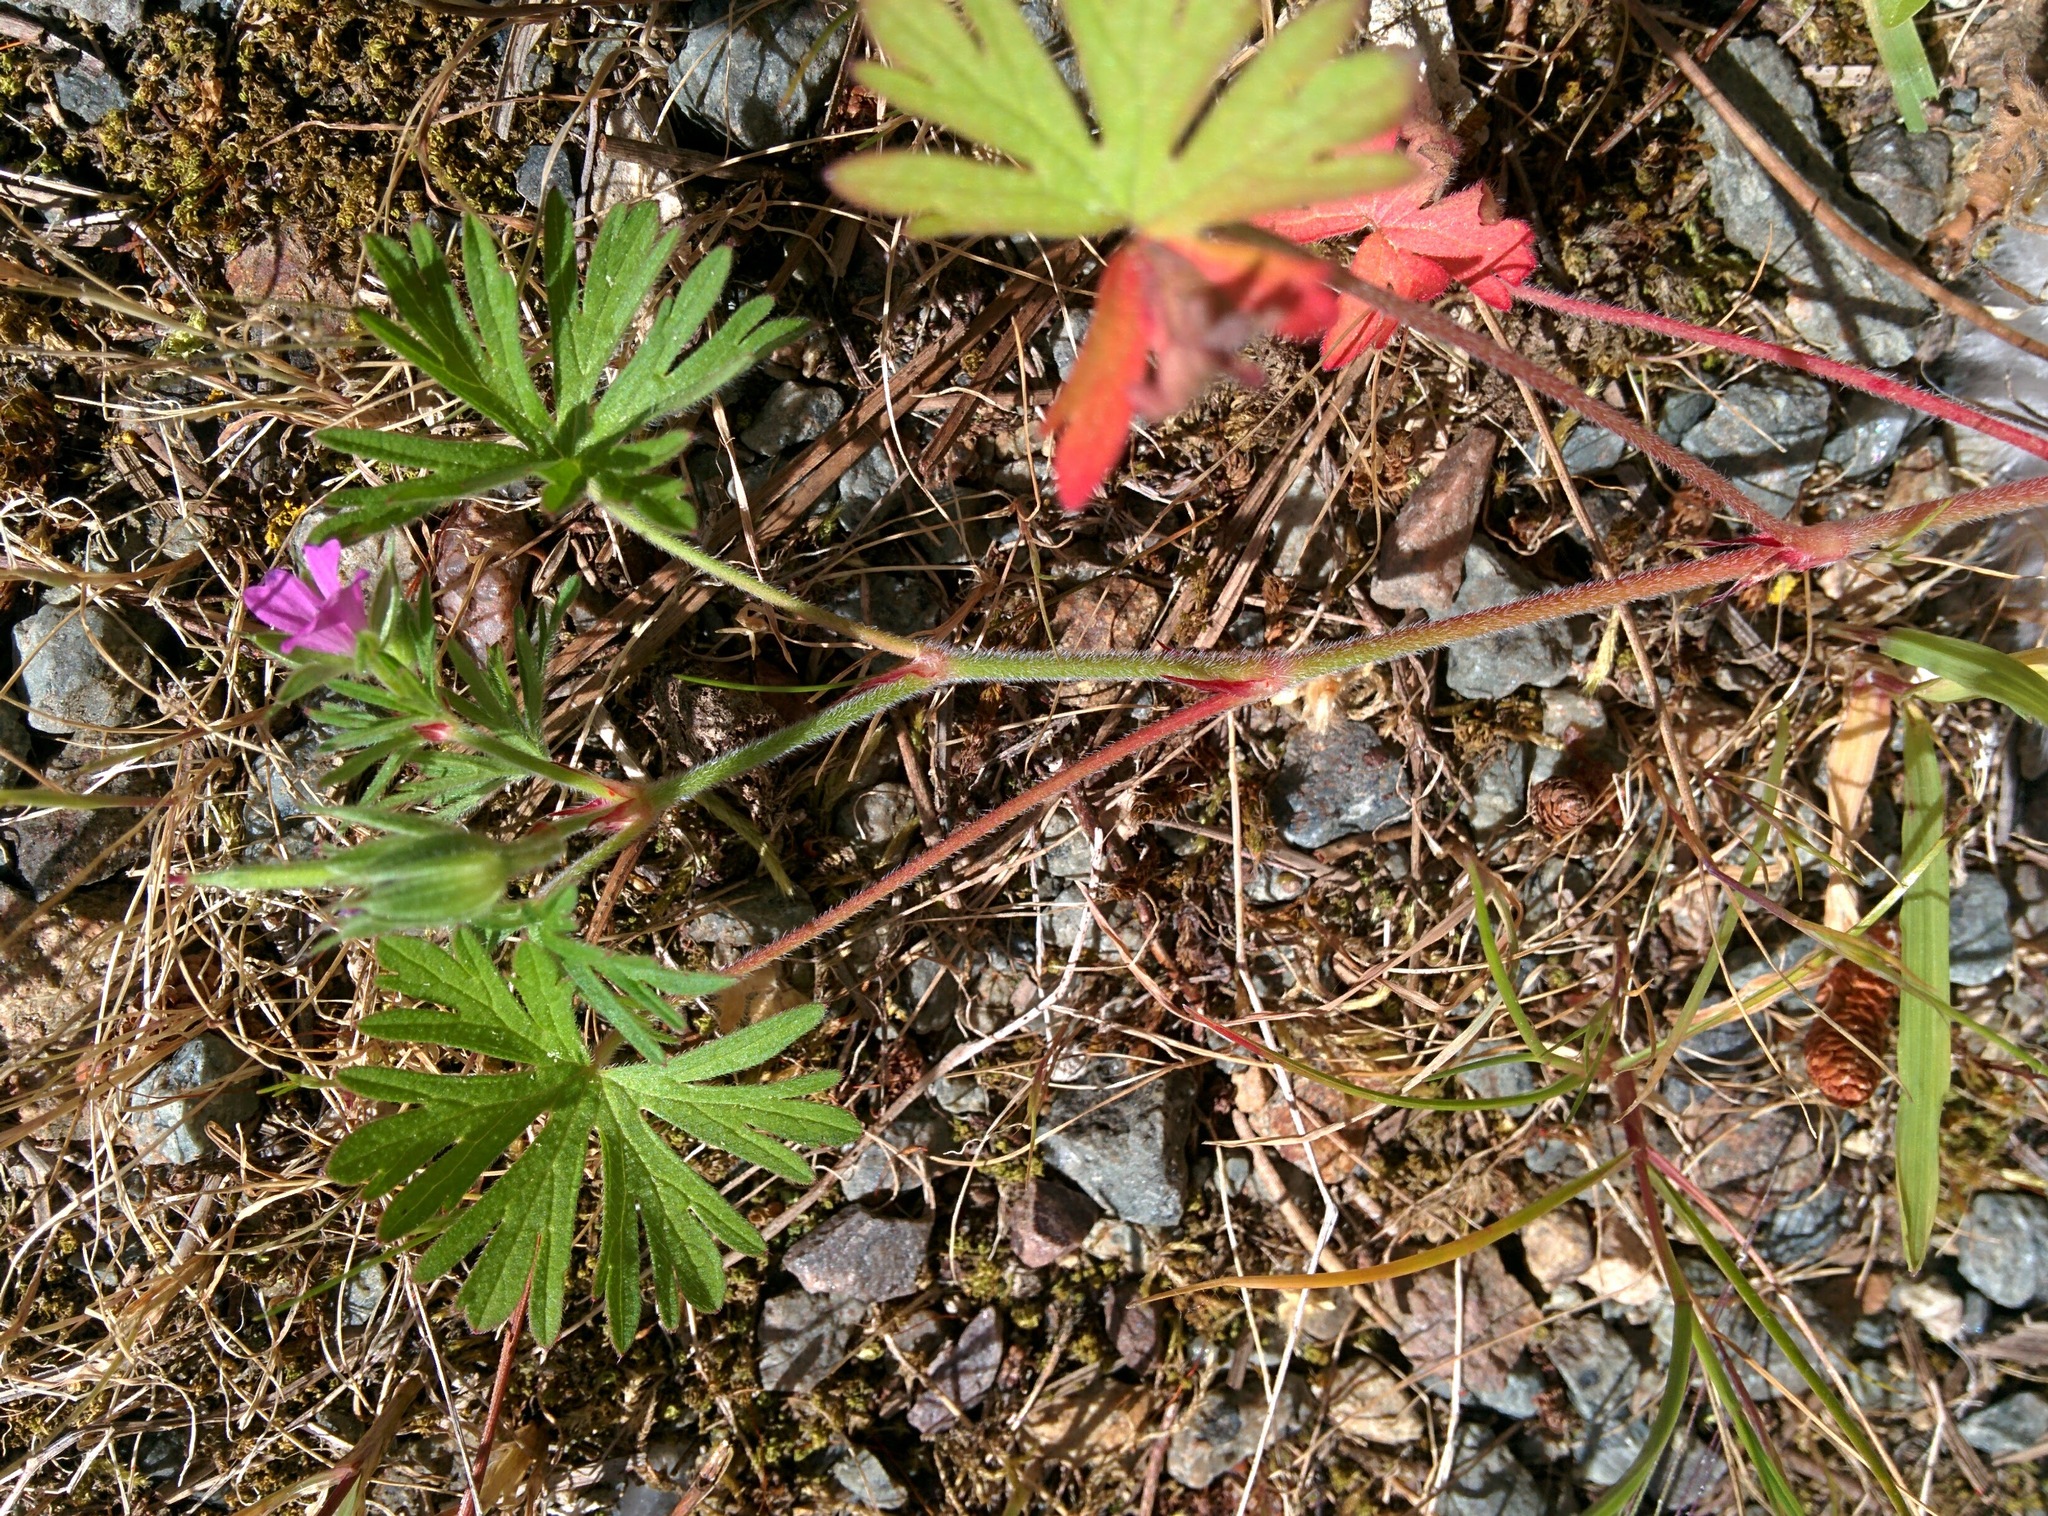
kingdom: Plantae
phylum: Tracheophyta
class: Magnoliopsida
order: Geraniales
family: Geraniaceae
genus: Geranium
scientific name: Geranium dissectum
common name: Cut-leaved crane's-bill
